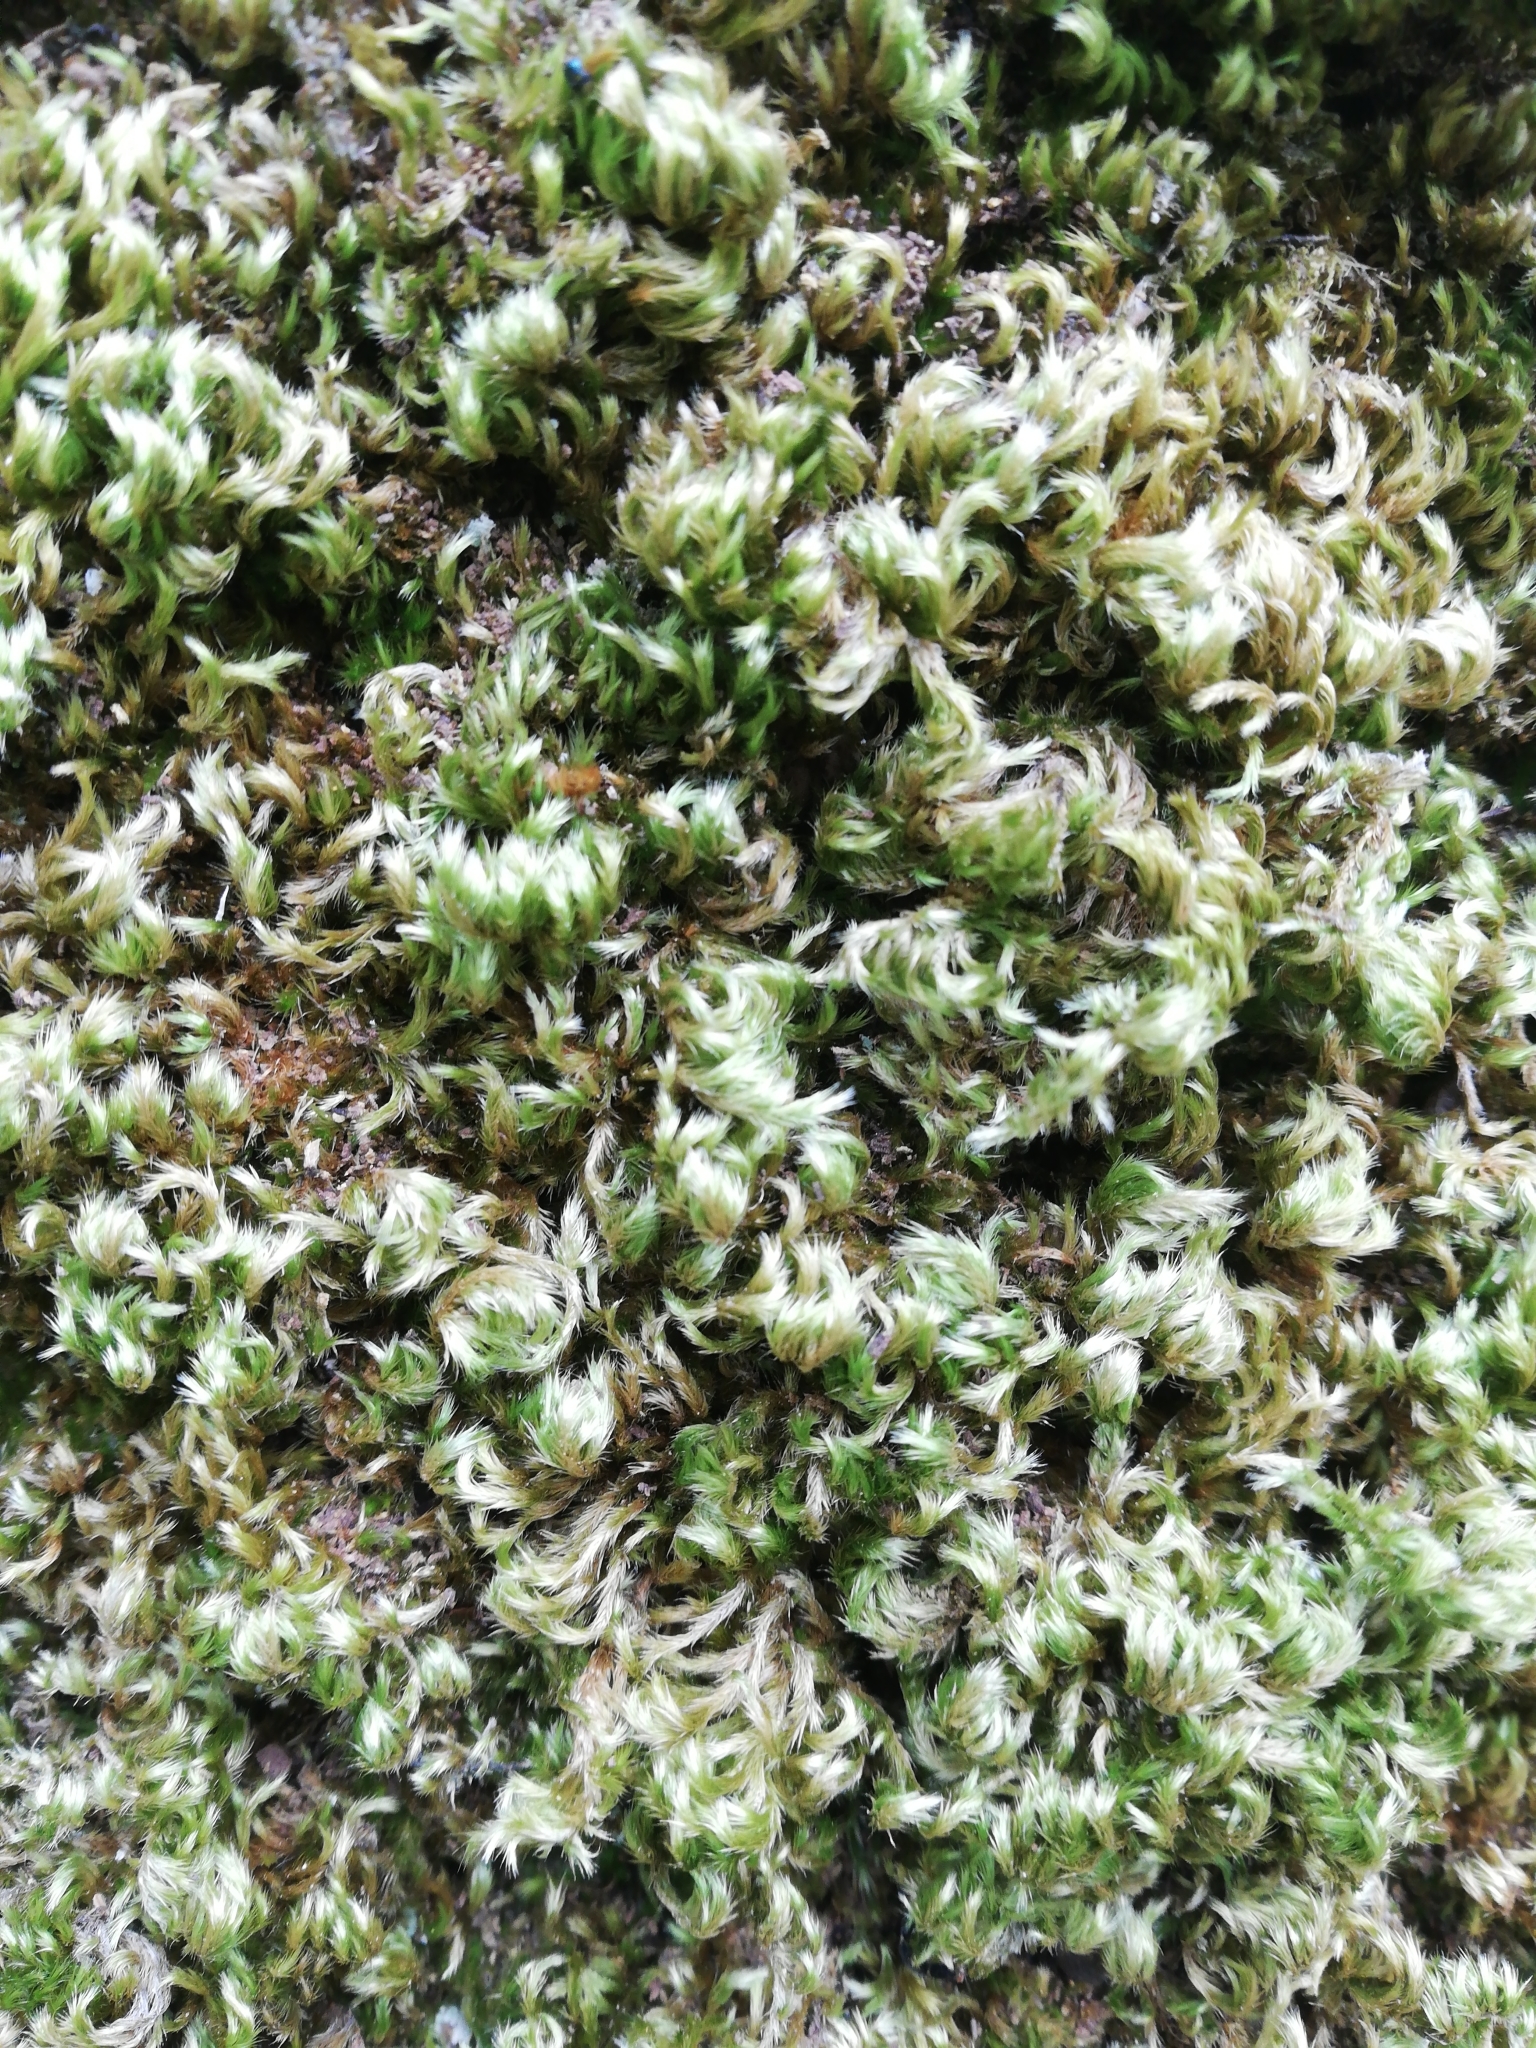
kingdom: Plantae
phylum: Bryophyta
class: Bryopsida
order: Hypnales
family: Brachytheciaceae
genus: Homalothecium
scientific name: Homalothecium sericeum
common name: Silky wall feather-moss
